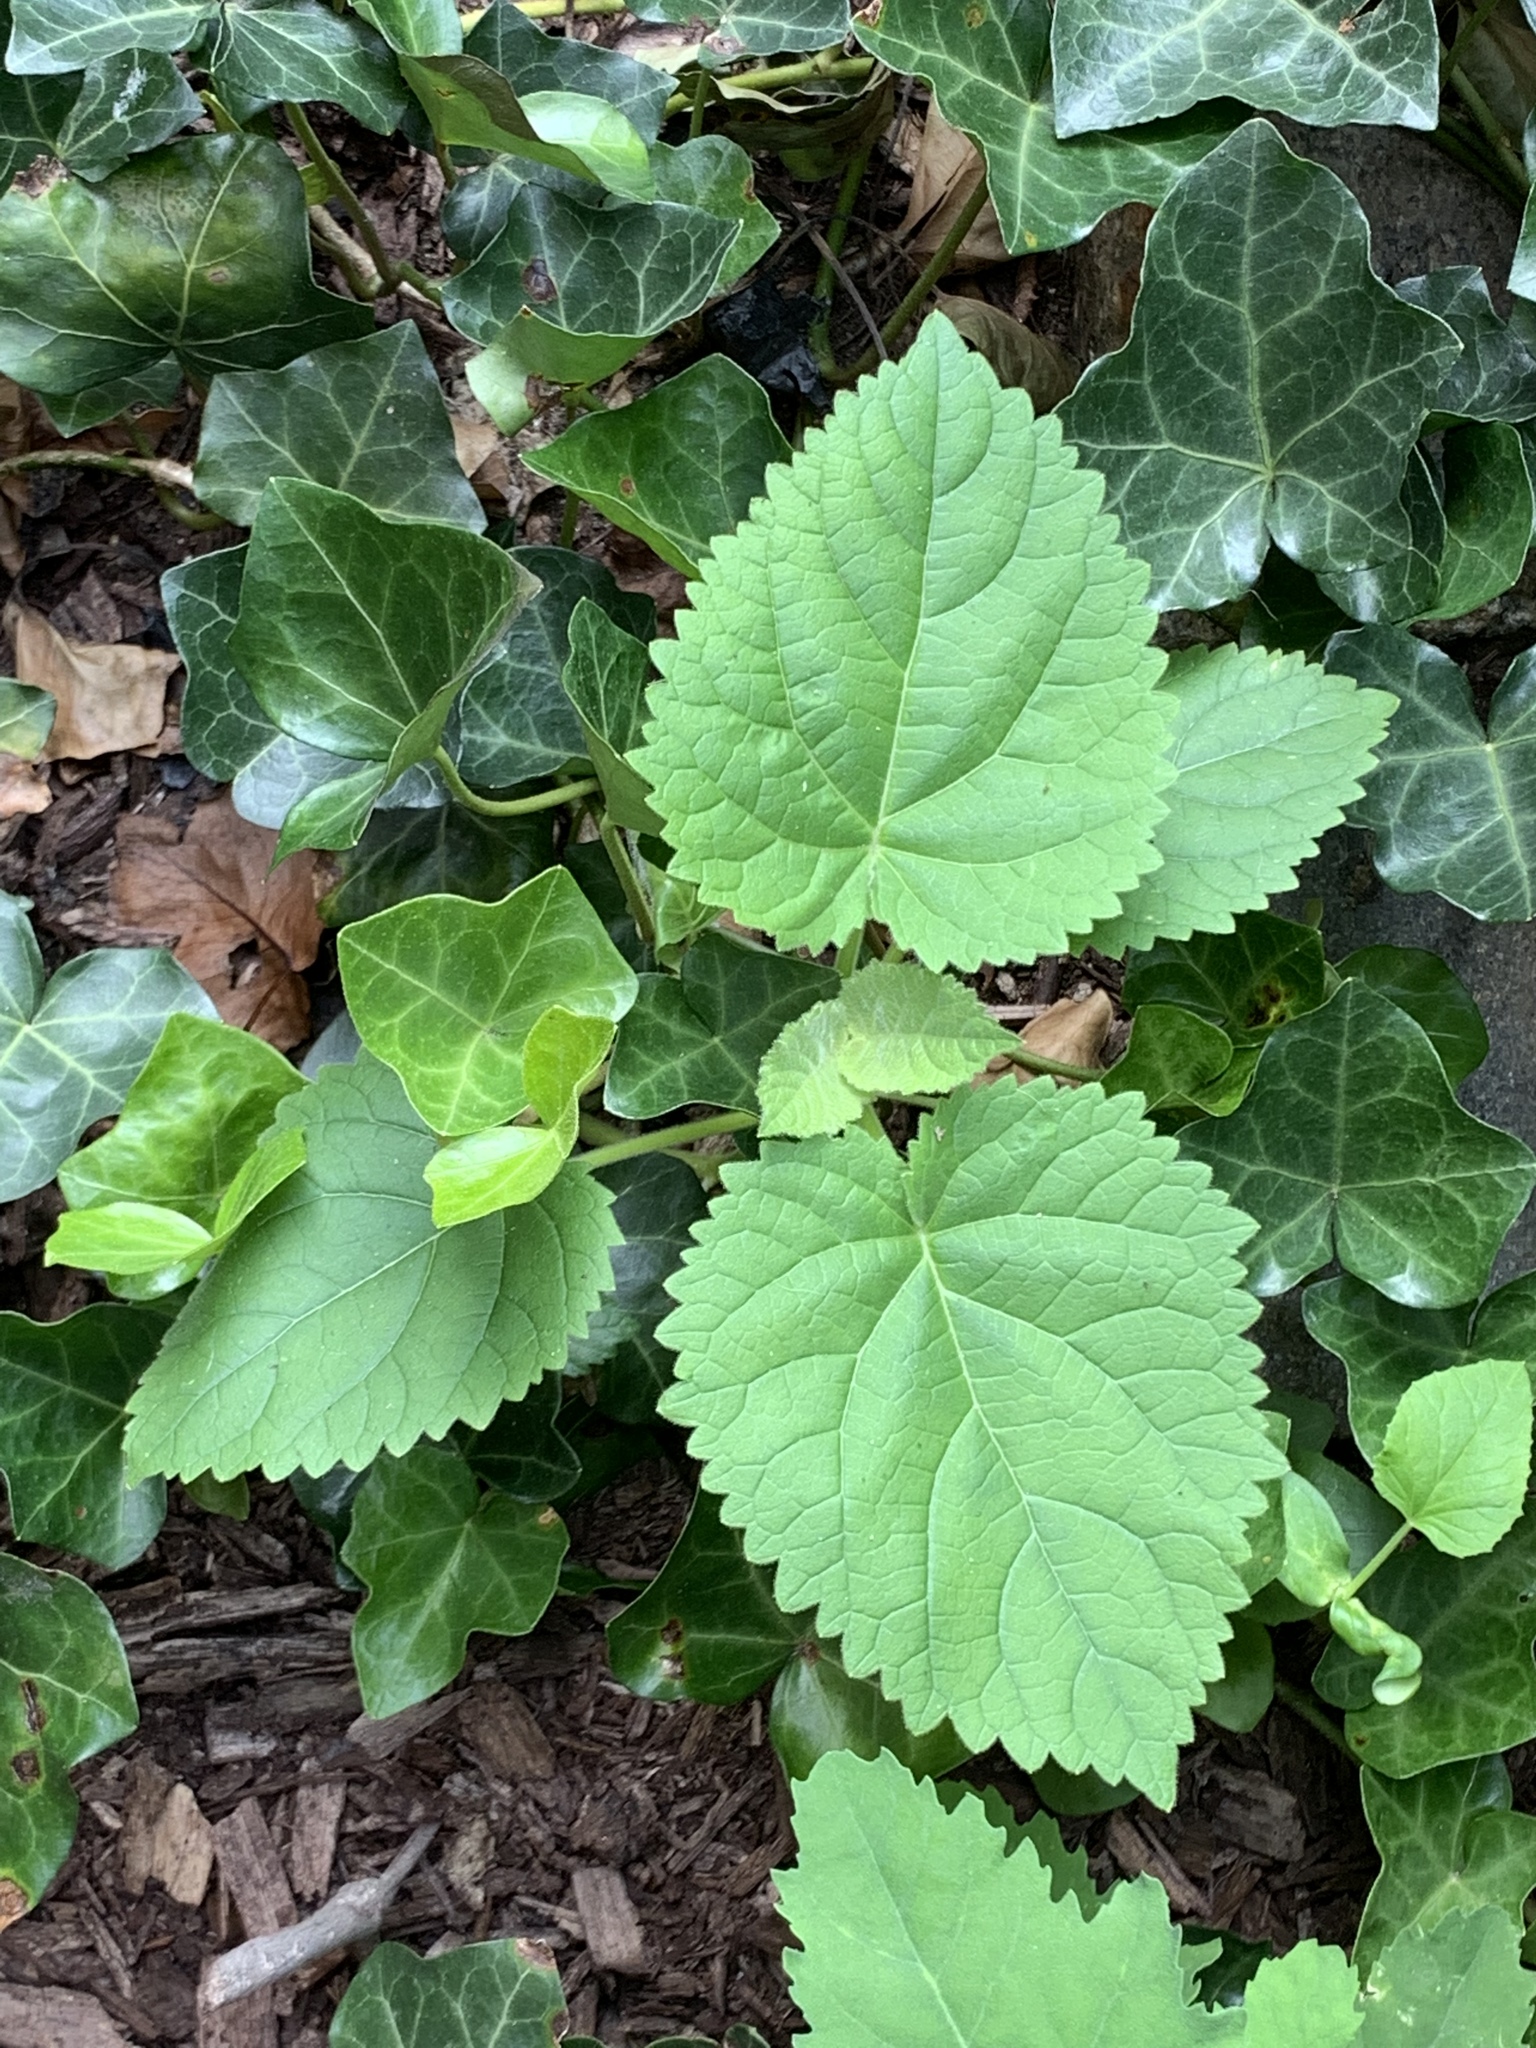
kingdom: Plantae
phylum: Tracheophyta
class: Magnoliopsida
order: Lamiales
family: Paulowniaceae
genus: Paulownia
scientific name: Paulownia tomentosa
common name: Foxglove-tree
